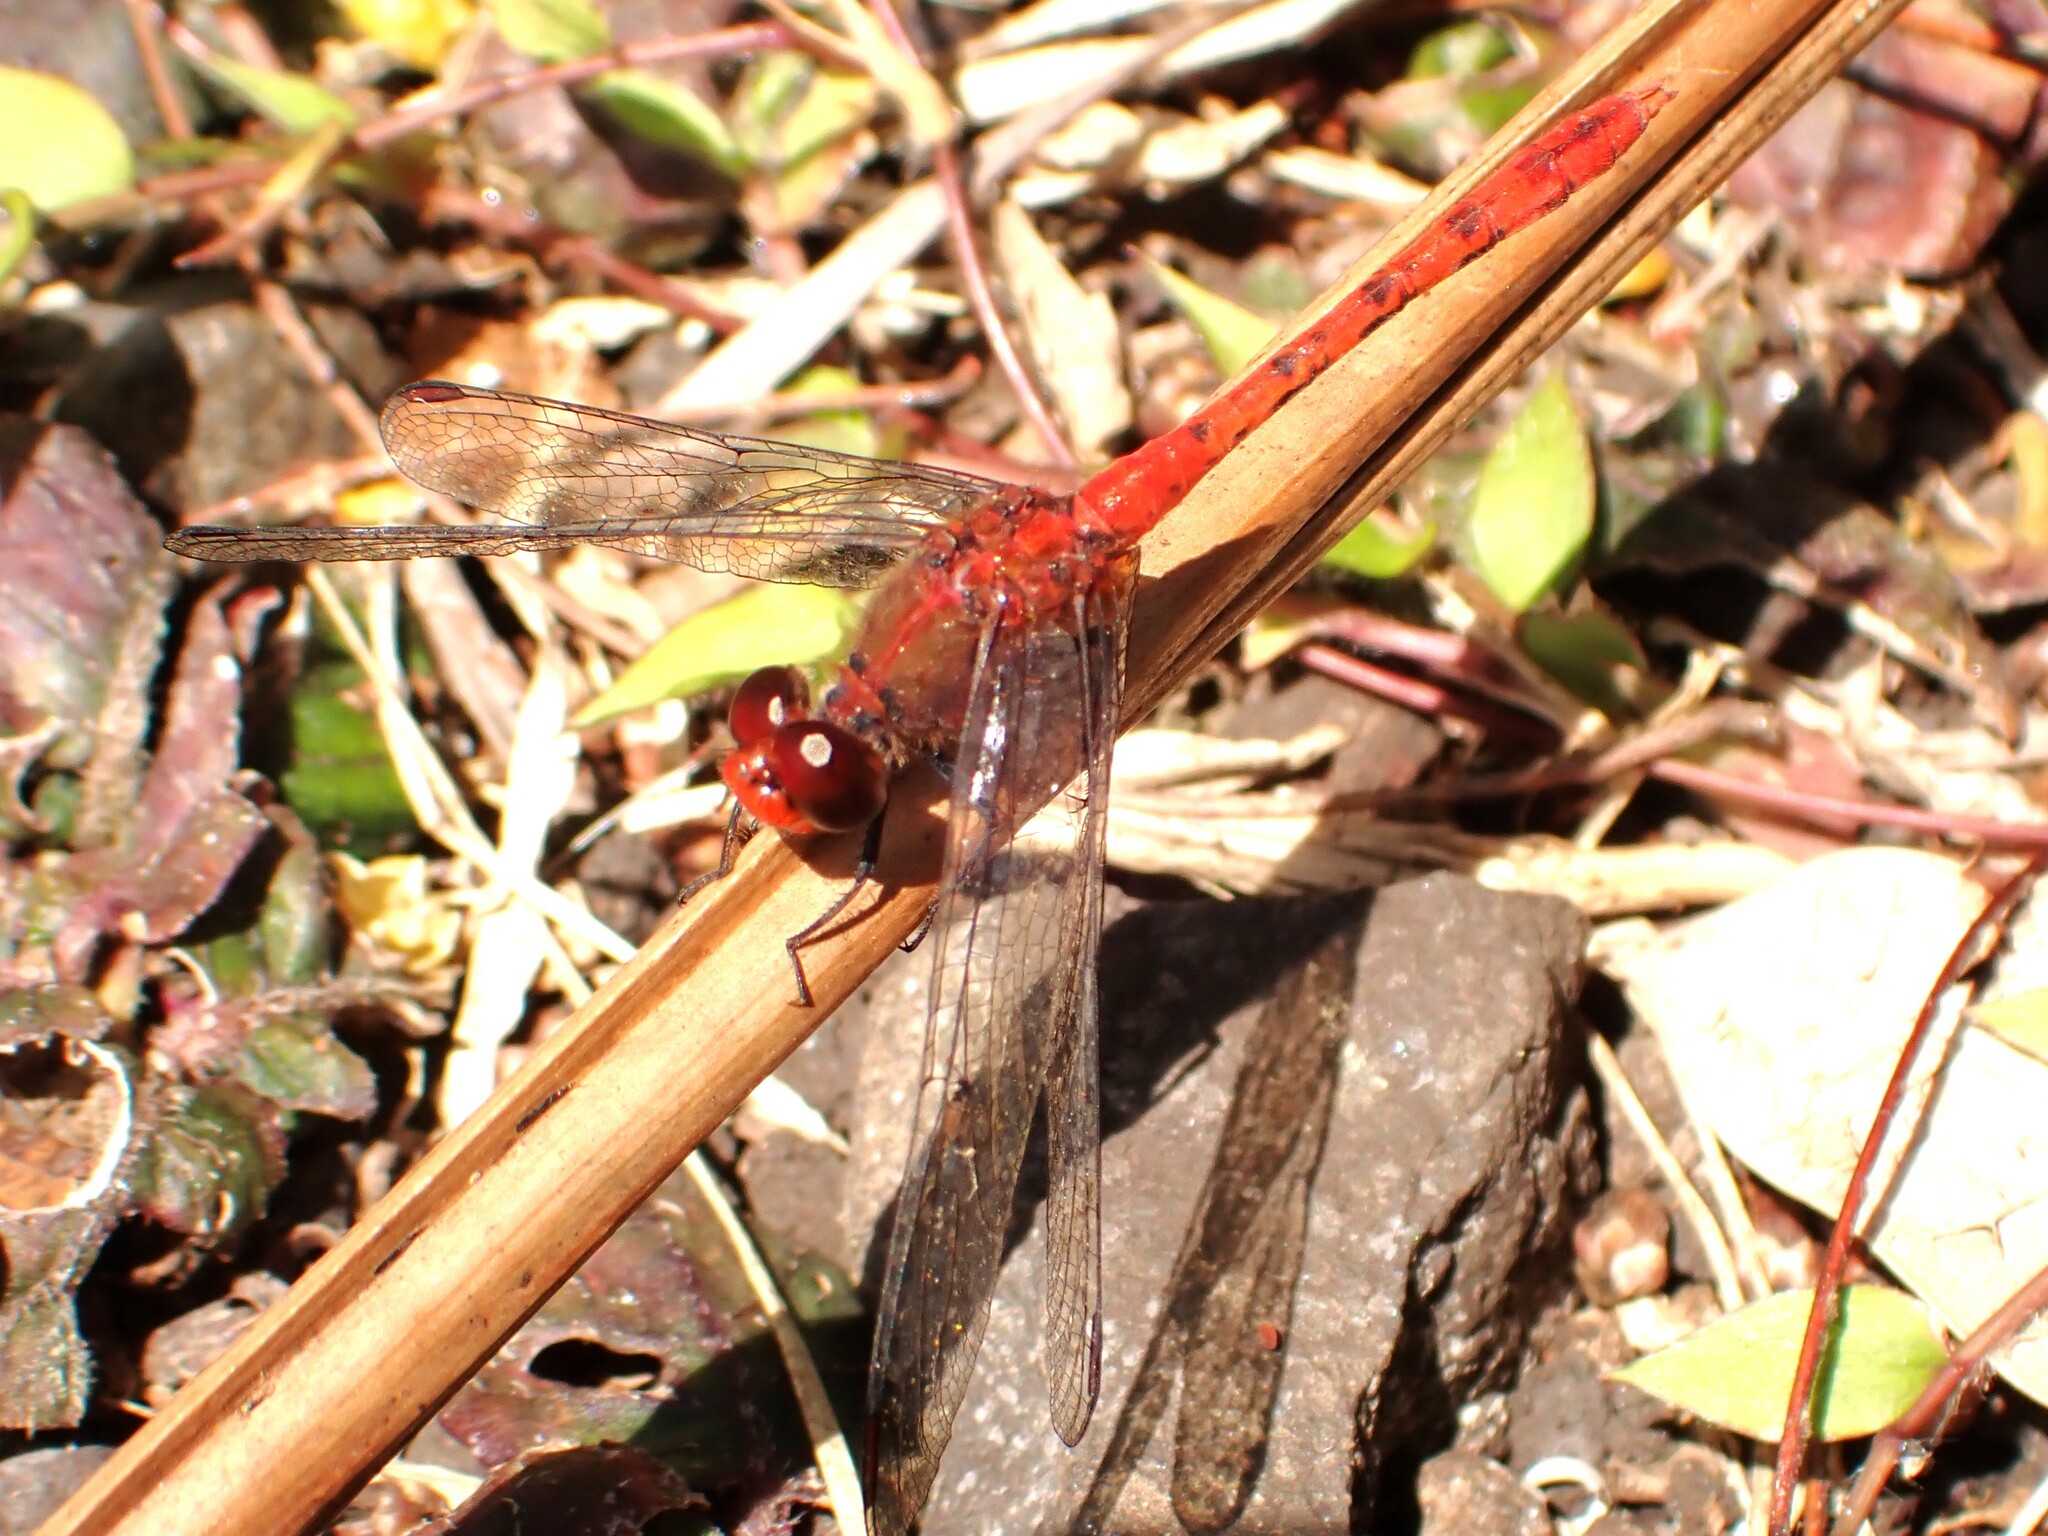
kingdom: Animalia
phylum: Arthropoda
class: Insecta
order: Odonata
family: Libellulidae
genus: Diplacodes
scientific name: Diplacodes bipunctata
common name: Red percher dragonfly
